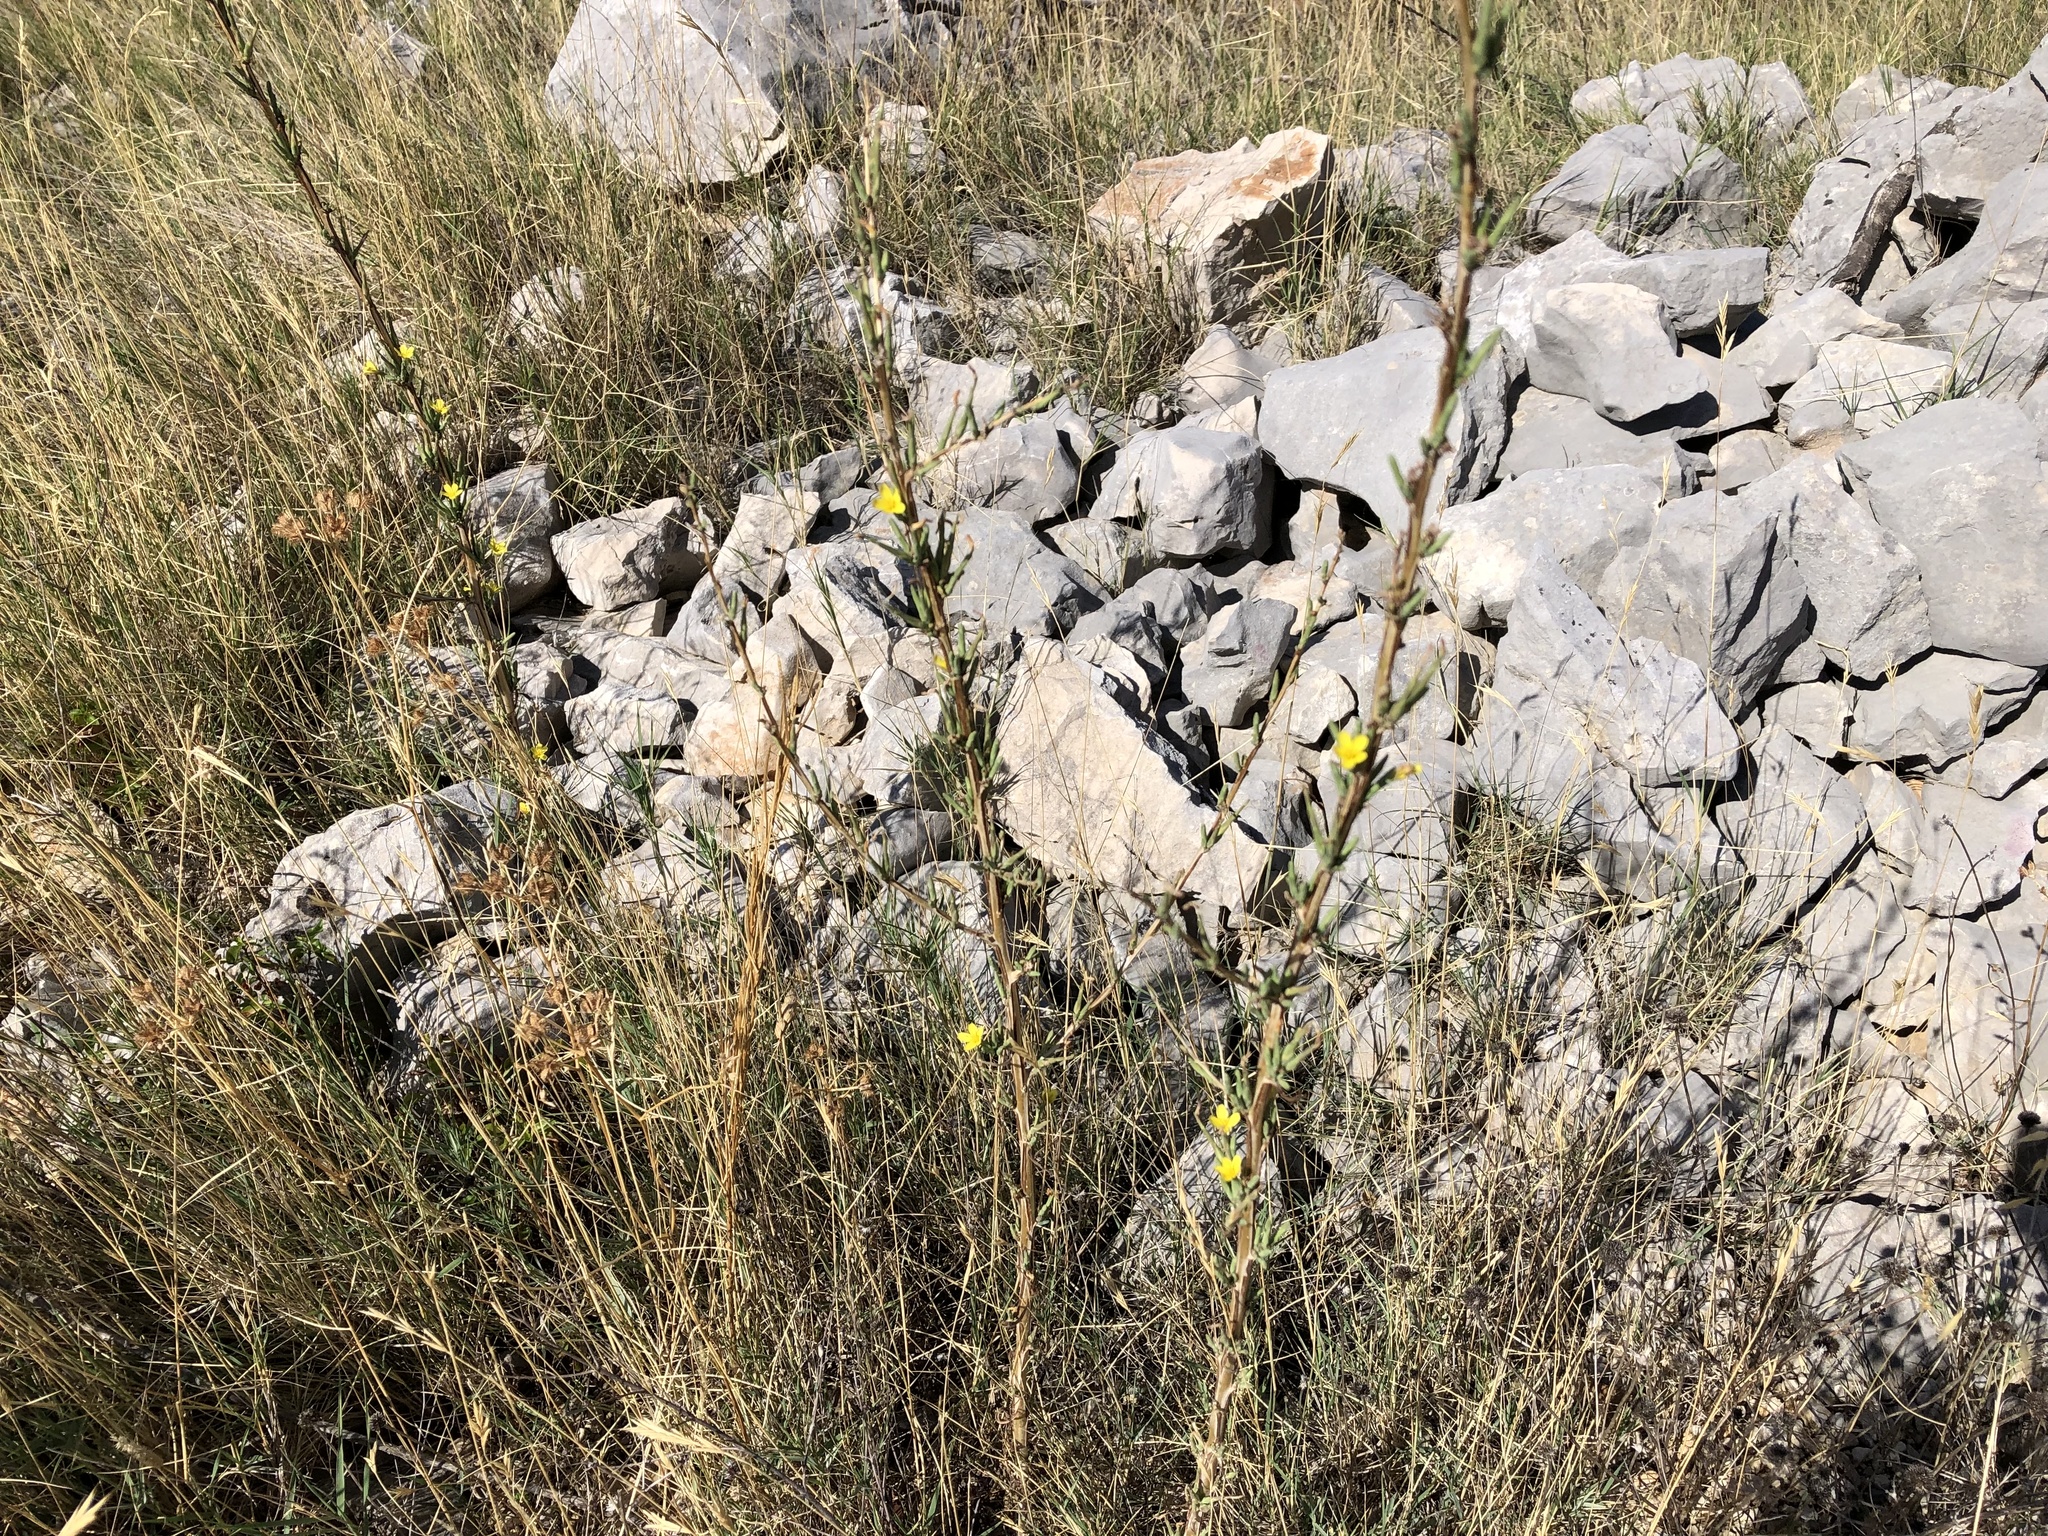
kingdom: Plantae
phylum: Tracheophyta
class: Magnoliopsida
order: Asterales
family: Asteraceae
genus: Lactuca
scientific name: Lactuca viminea
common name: Pliant lettuce
